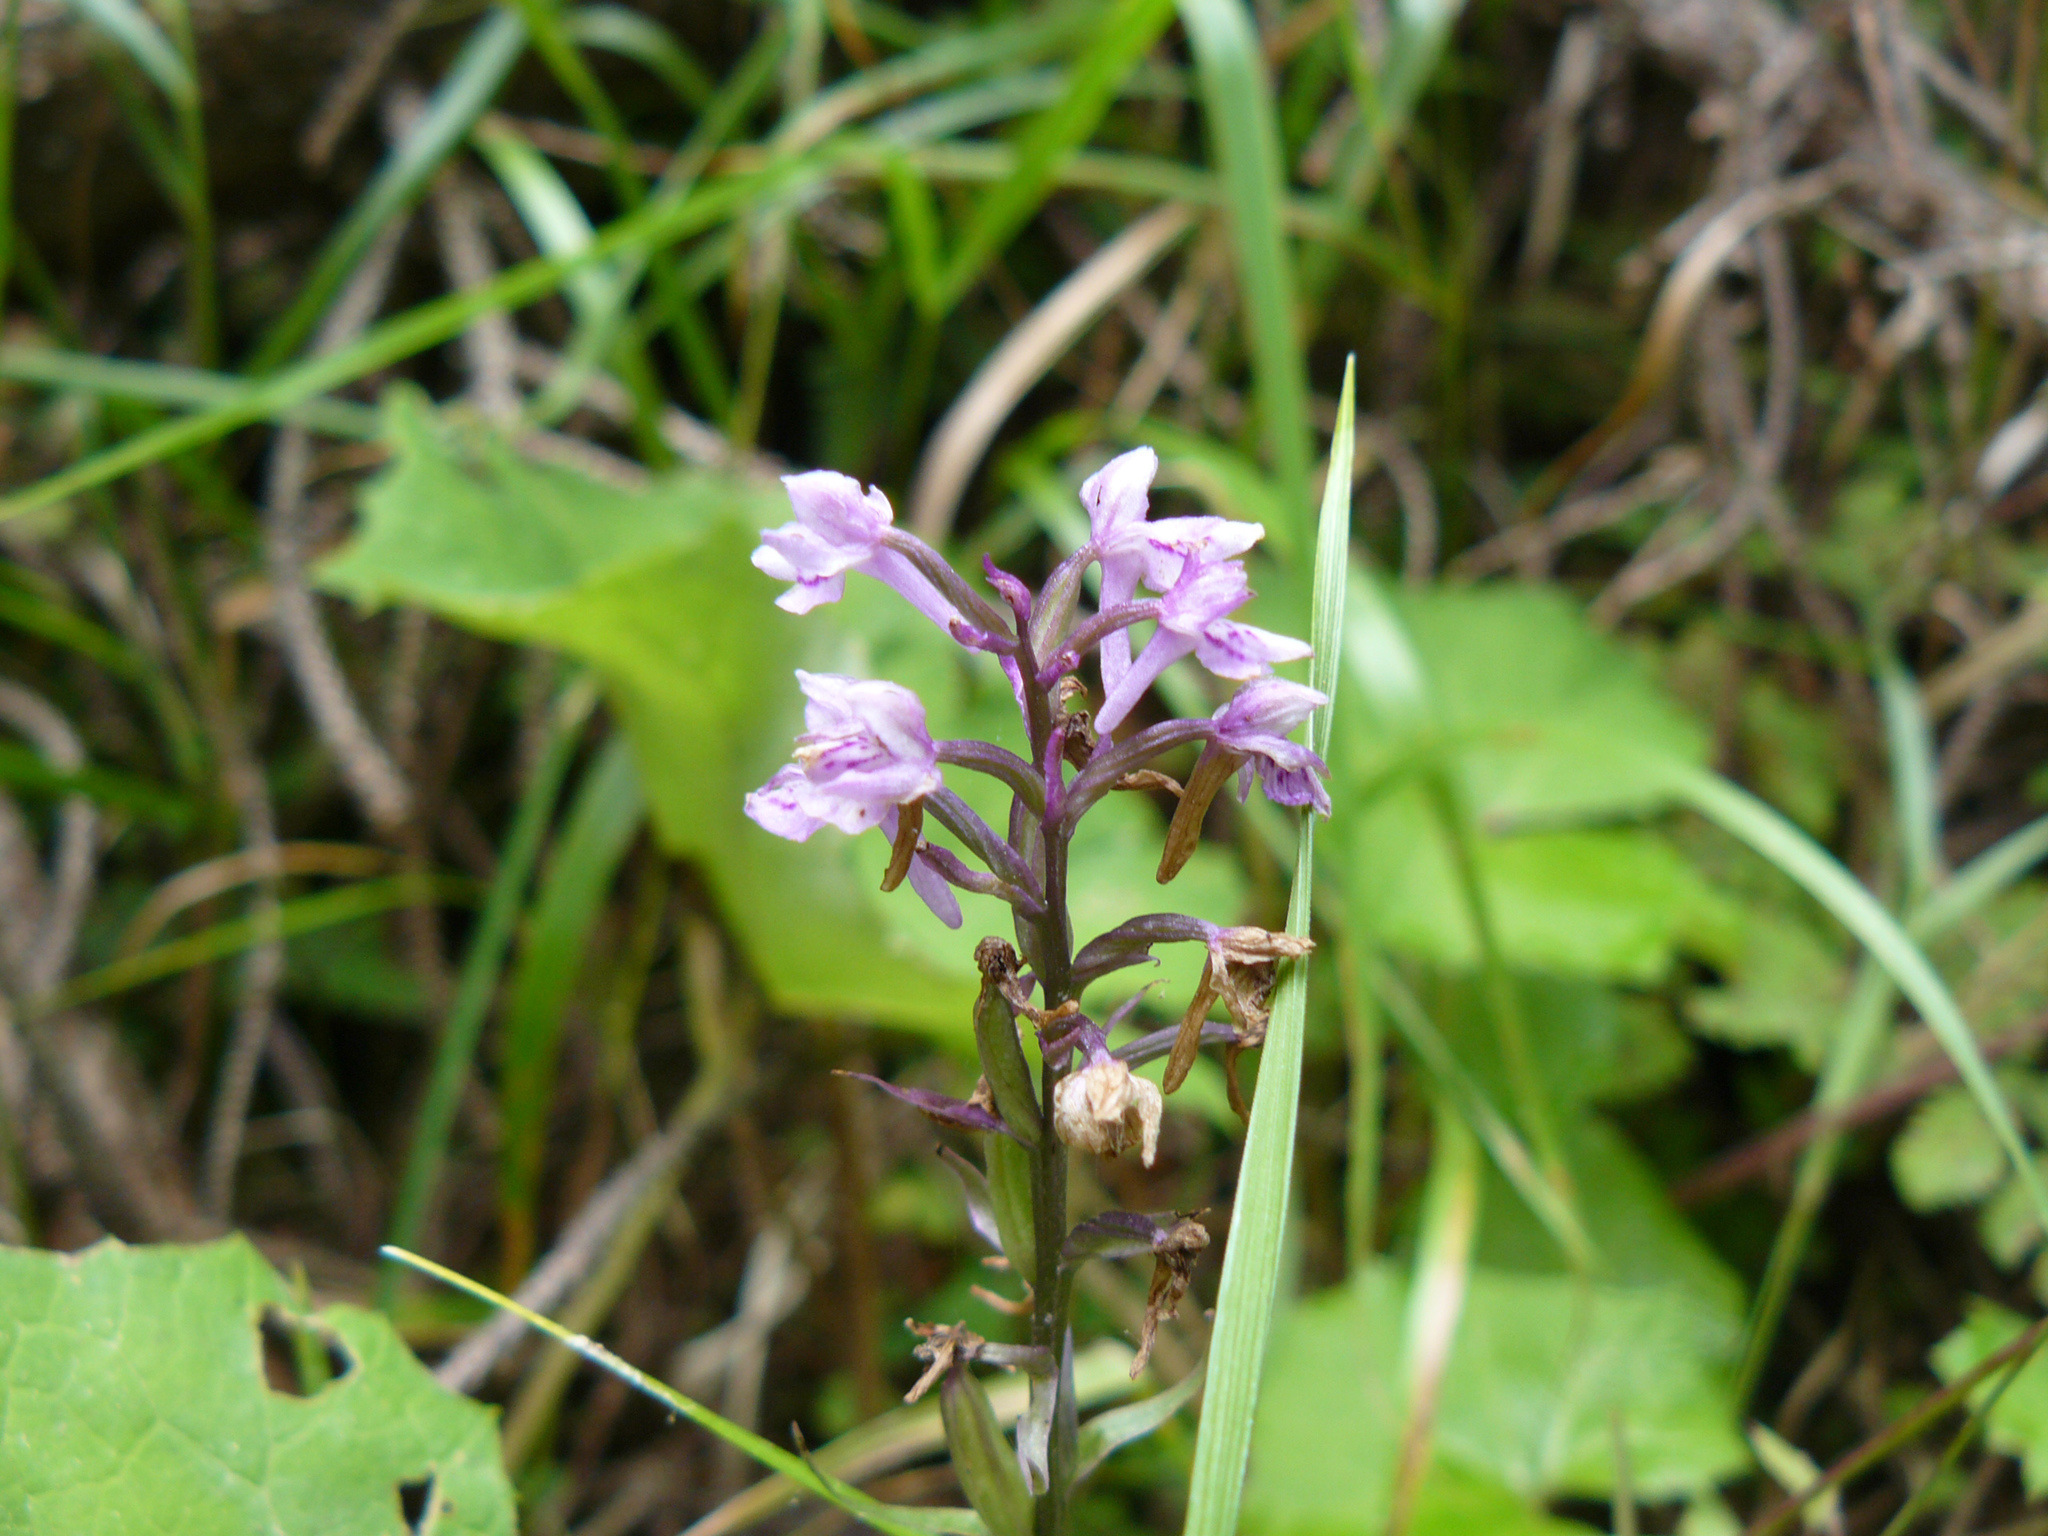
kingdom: Plantae
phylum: Tracheophyta
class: Liliopsida
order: Asparagales
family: Orchidaceae
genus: Dactylorhiza
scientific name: Dactylorhiza maculata
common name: Heath spotted-orchid
